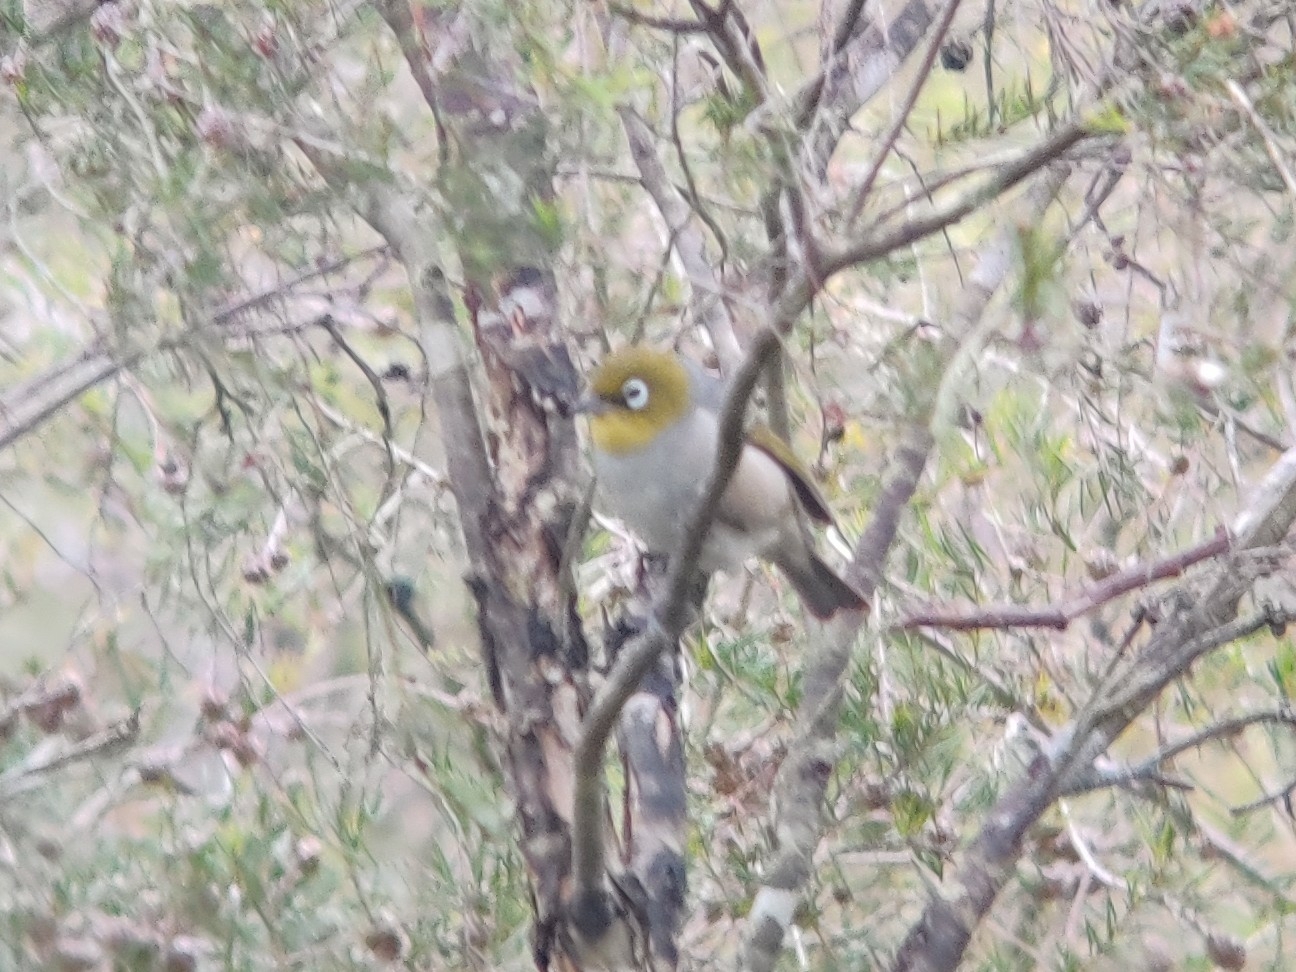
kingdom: Animalia
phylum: Chordata
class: Aves
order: Passeriformes
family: Zosteropidae
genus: Zosterops
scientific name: Zosterops lateralis
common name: Silvereye
